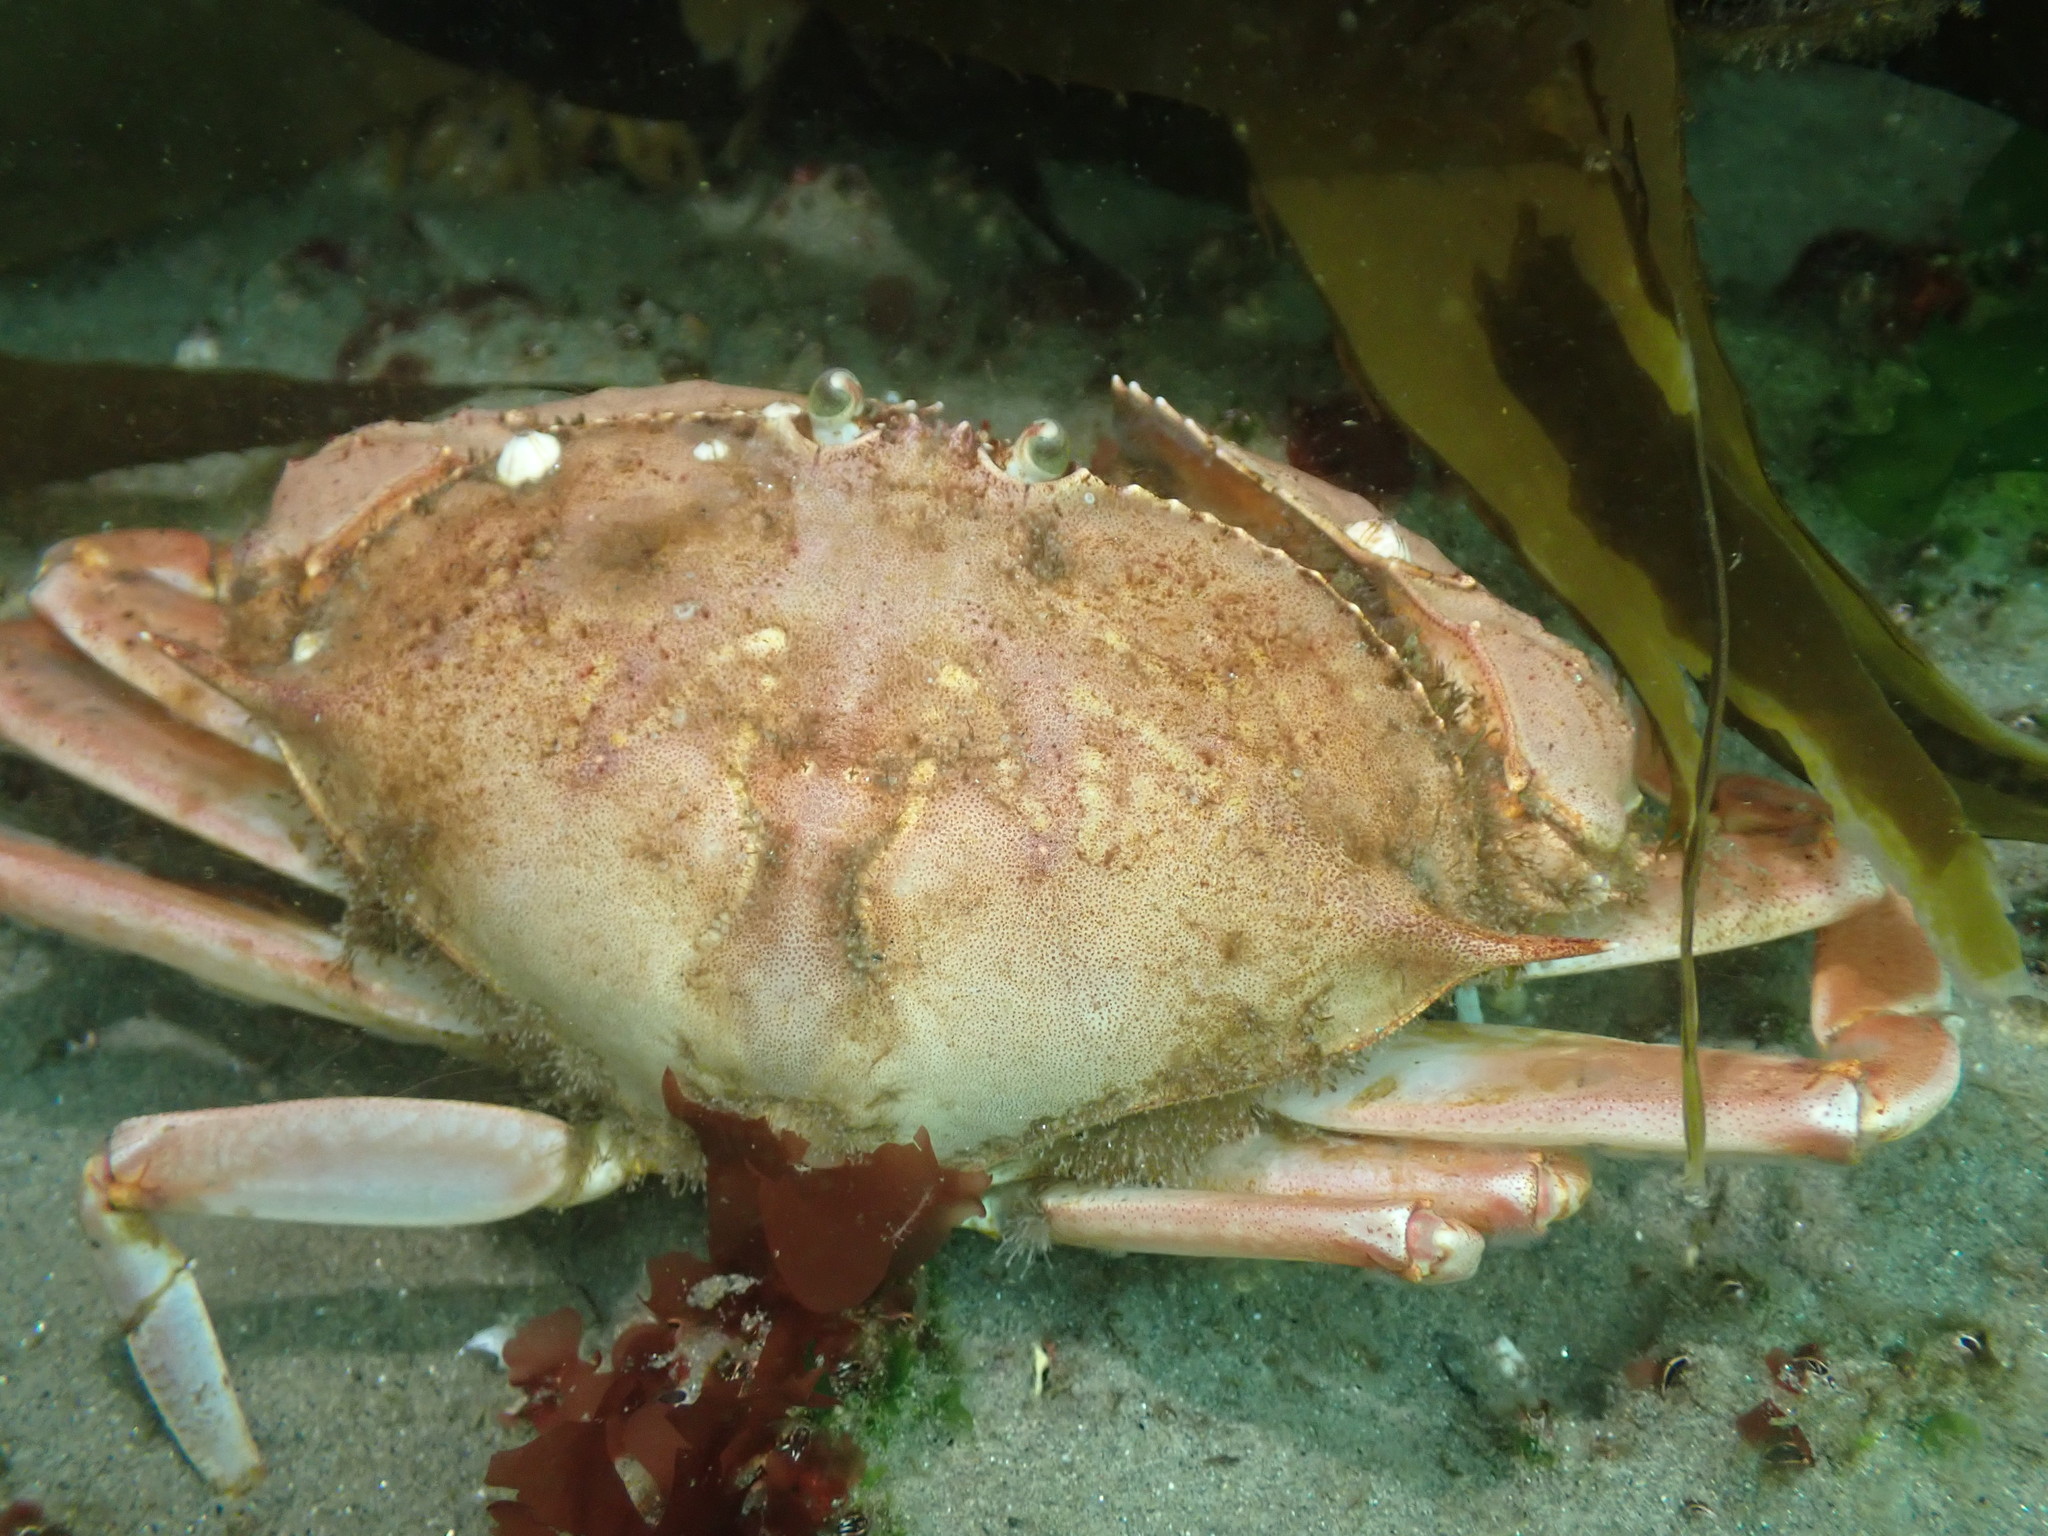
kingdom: Animalia
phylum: Arthropoda
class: Malacostraca
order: Decapoda
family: Calappidae
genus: Platymera
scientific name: Platymera gaudichaudii
